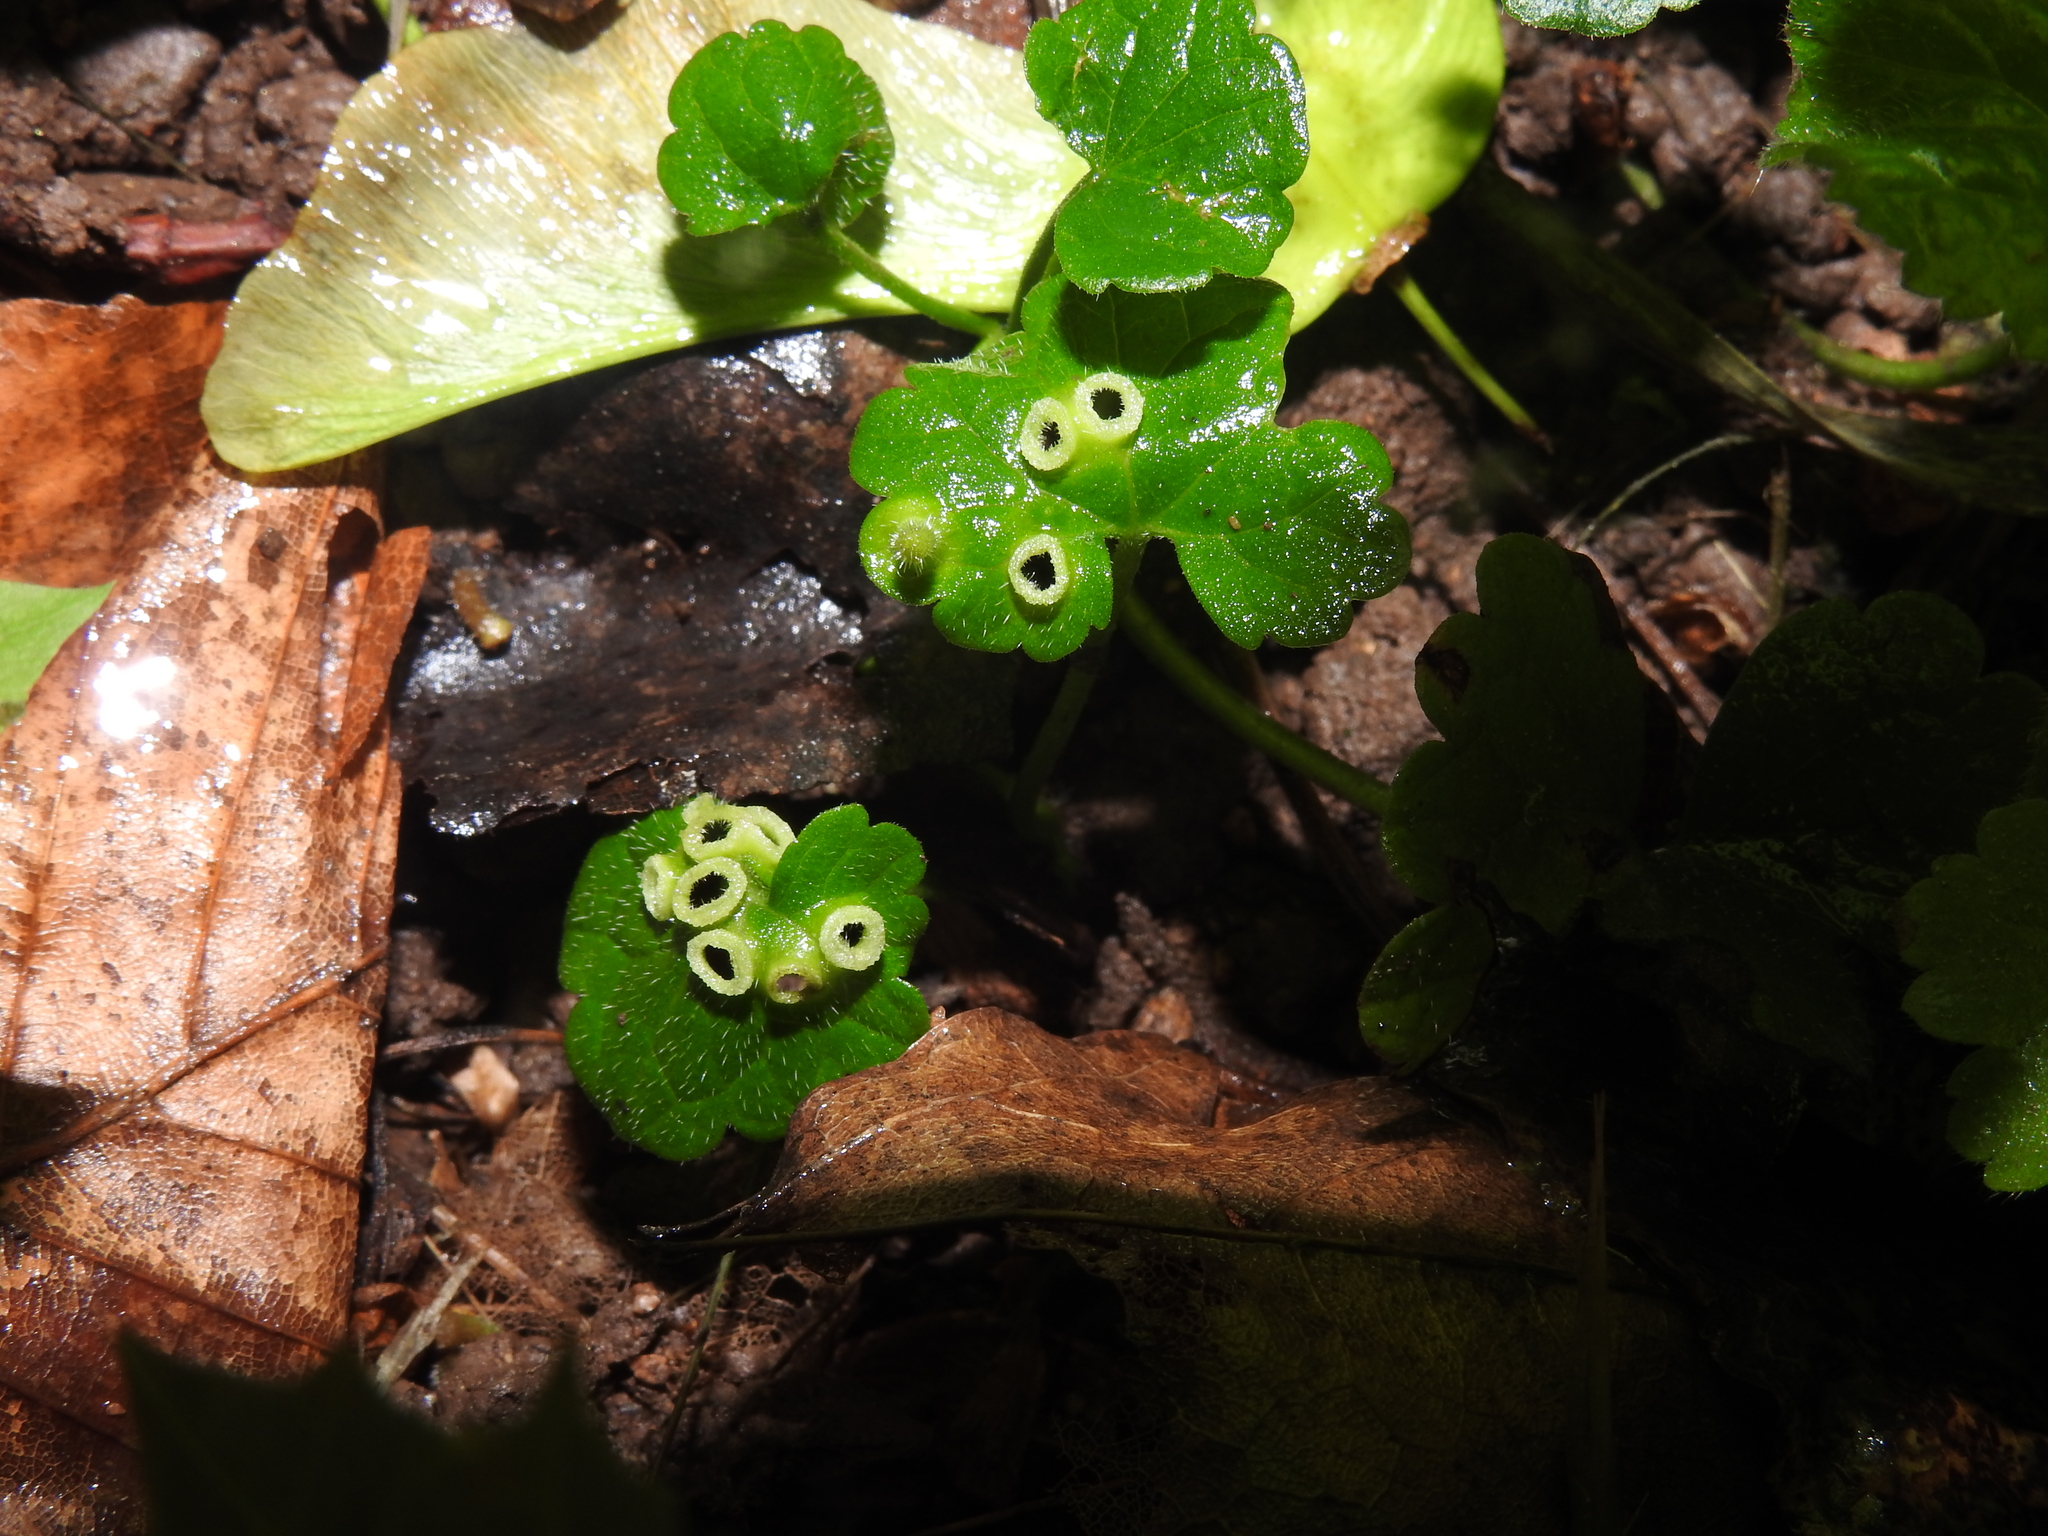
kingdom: Animalia
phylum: Arthropoda
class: Insecta
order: Diptera
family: Cecidomyiidae
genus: Rondaniola
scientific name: Rondaniola bursaria
